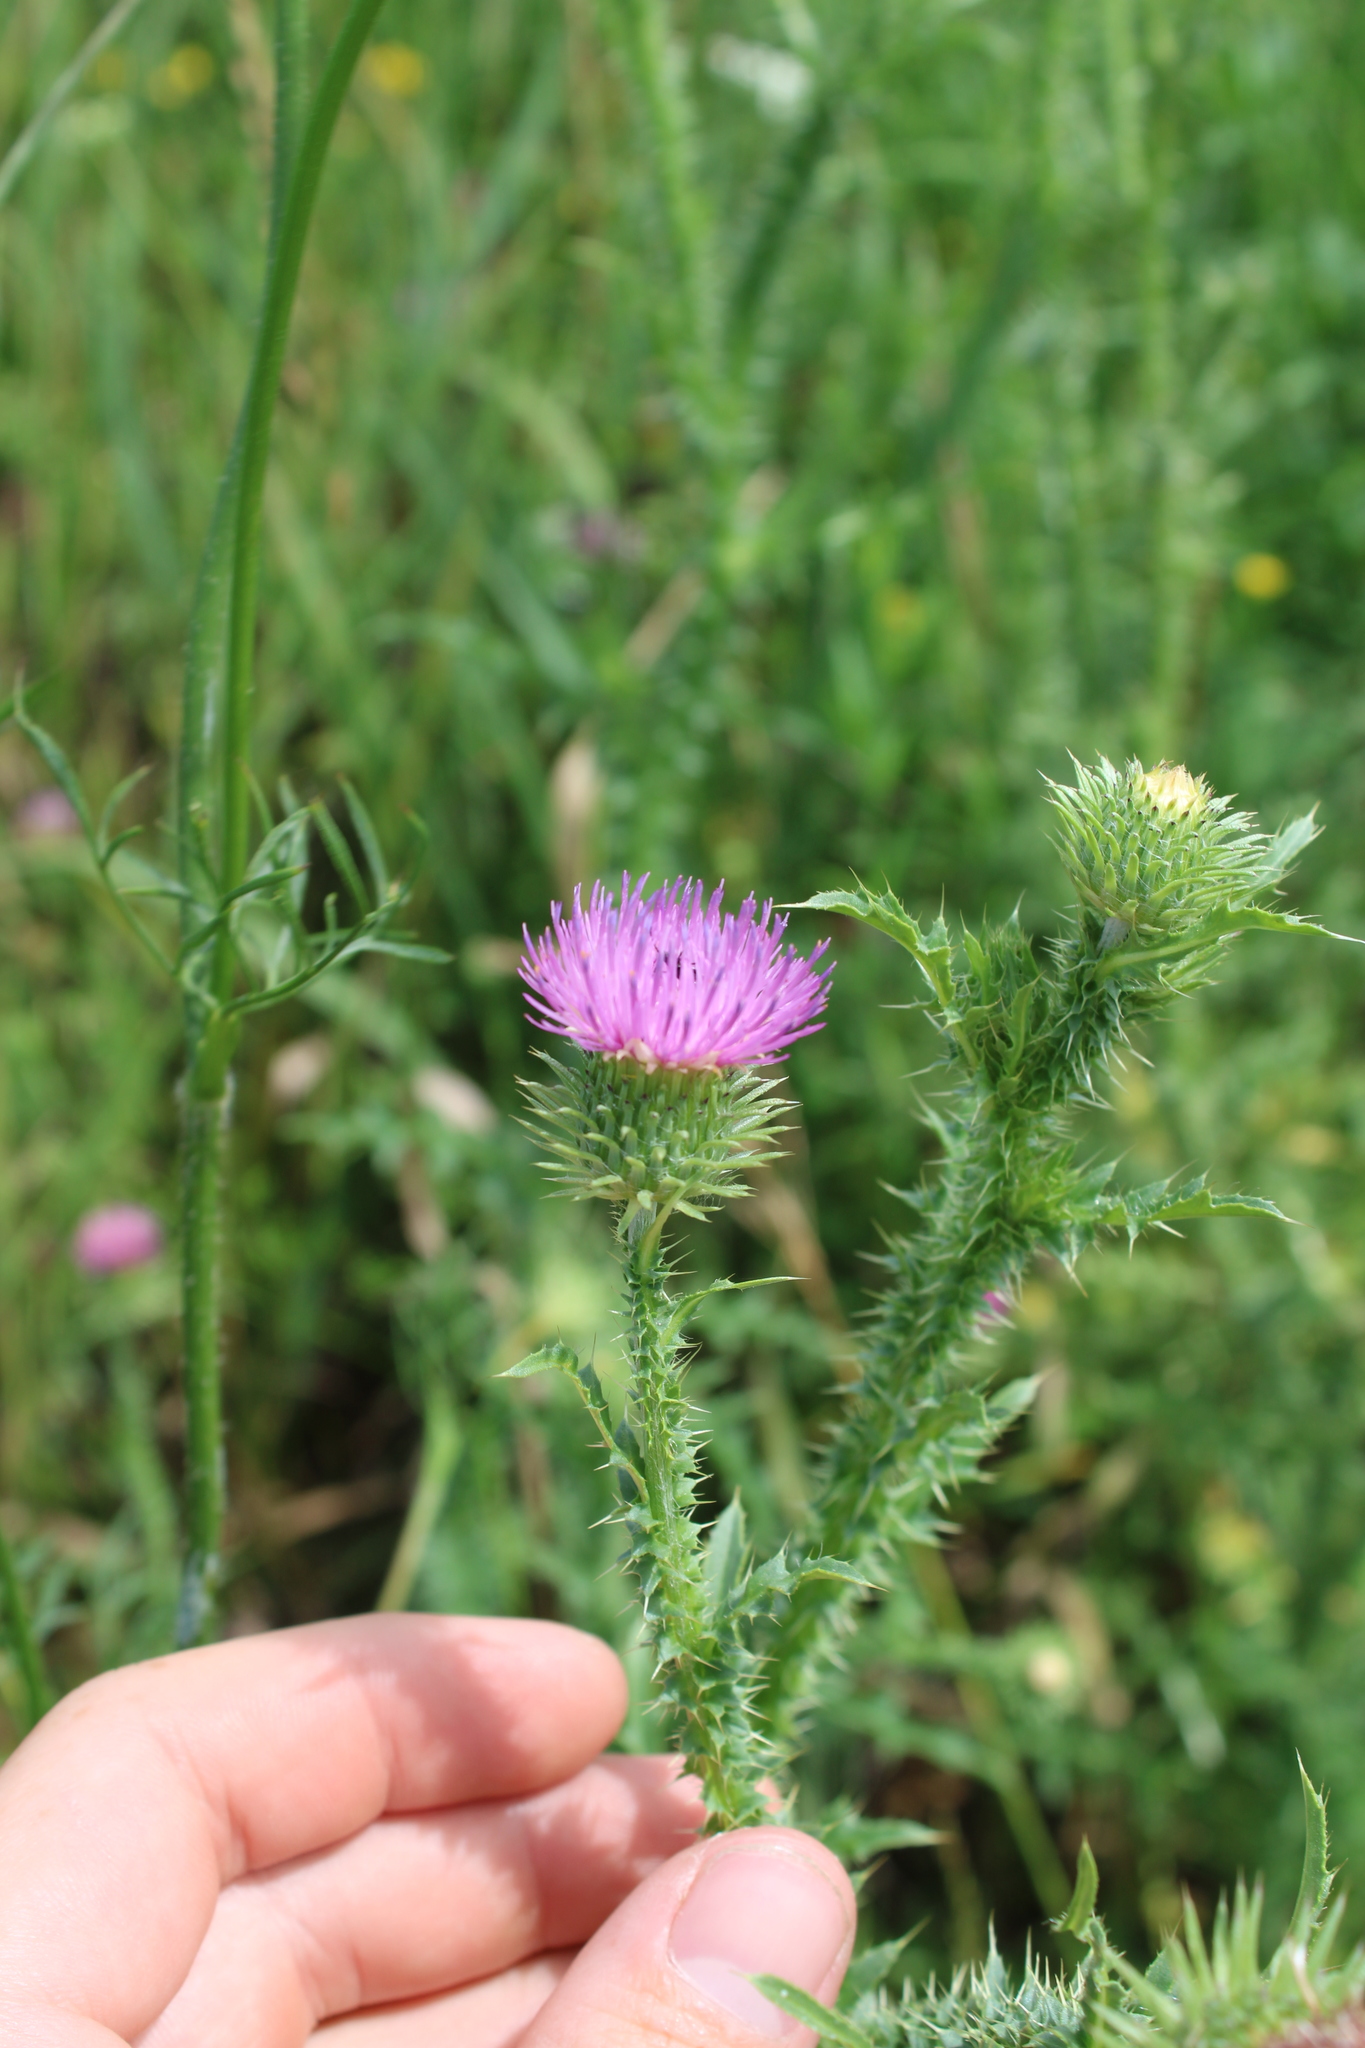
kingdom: Plantae
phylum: Tracheophyta
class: Magnoliopsida
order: Asterales
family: Asteraceae
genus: Carduus
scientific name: Carduus acanthoides
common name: Plumeless thistle
